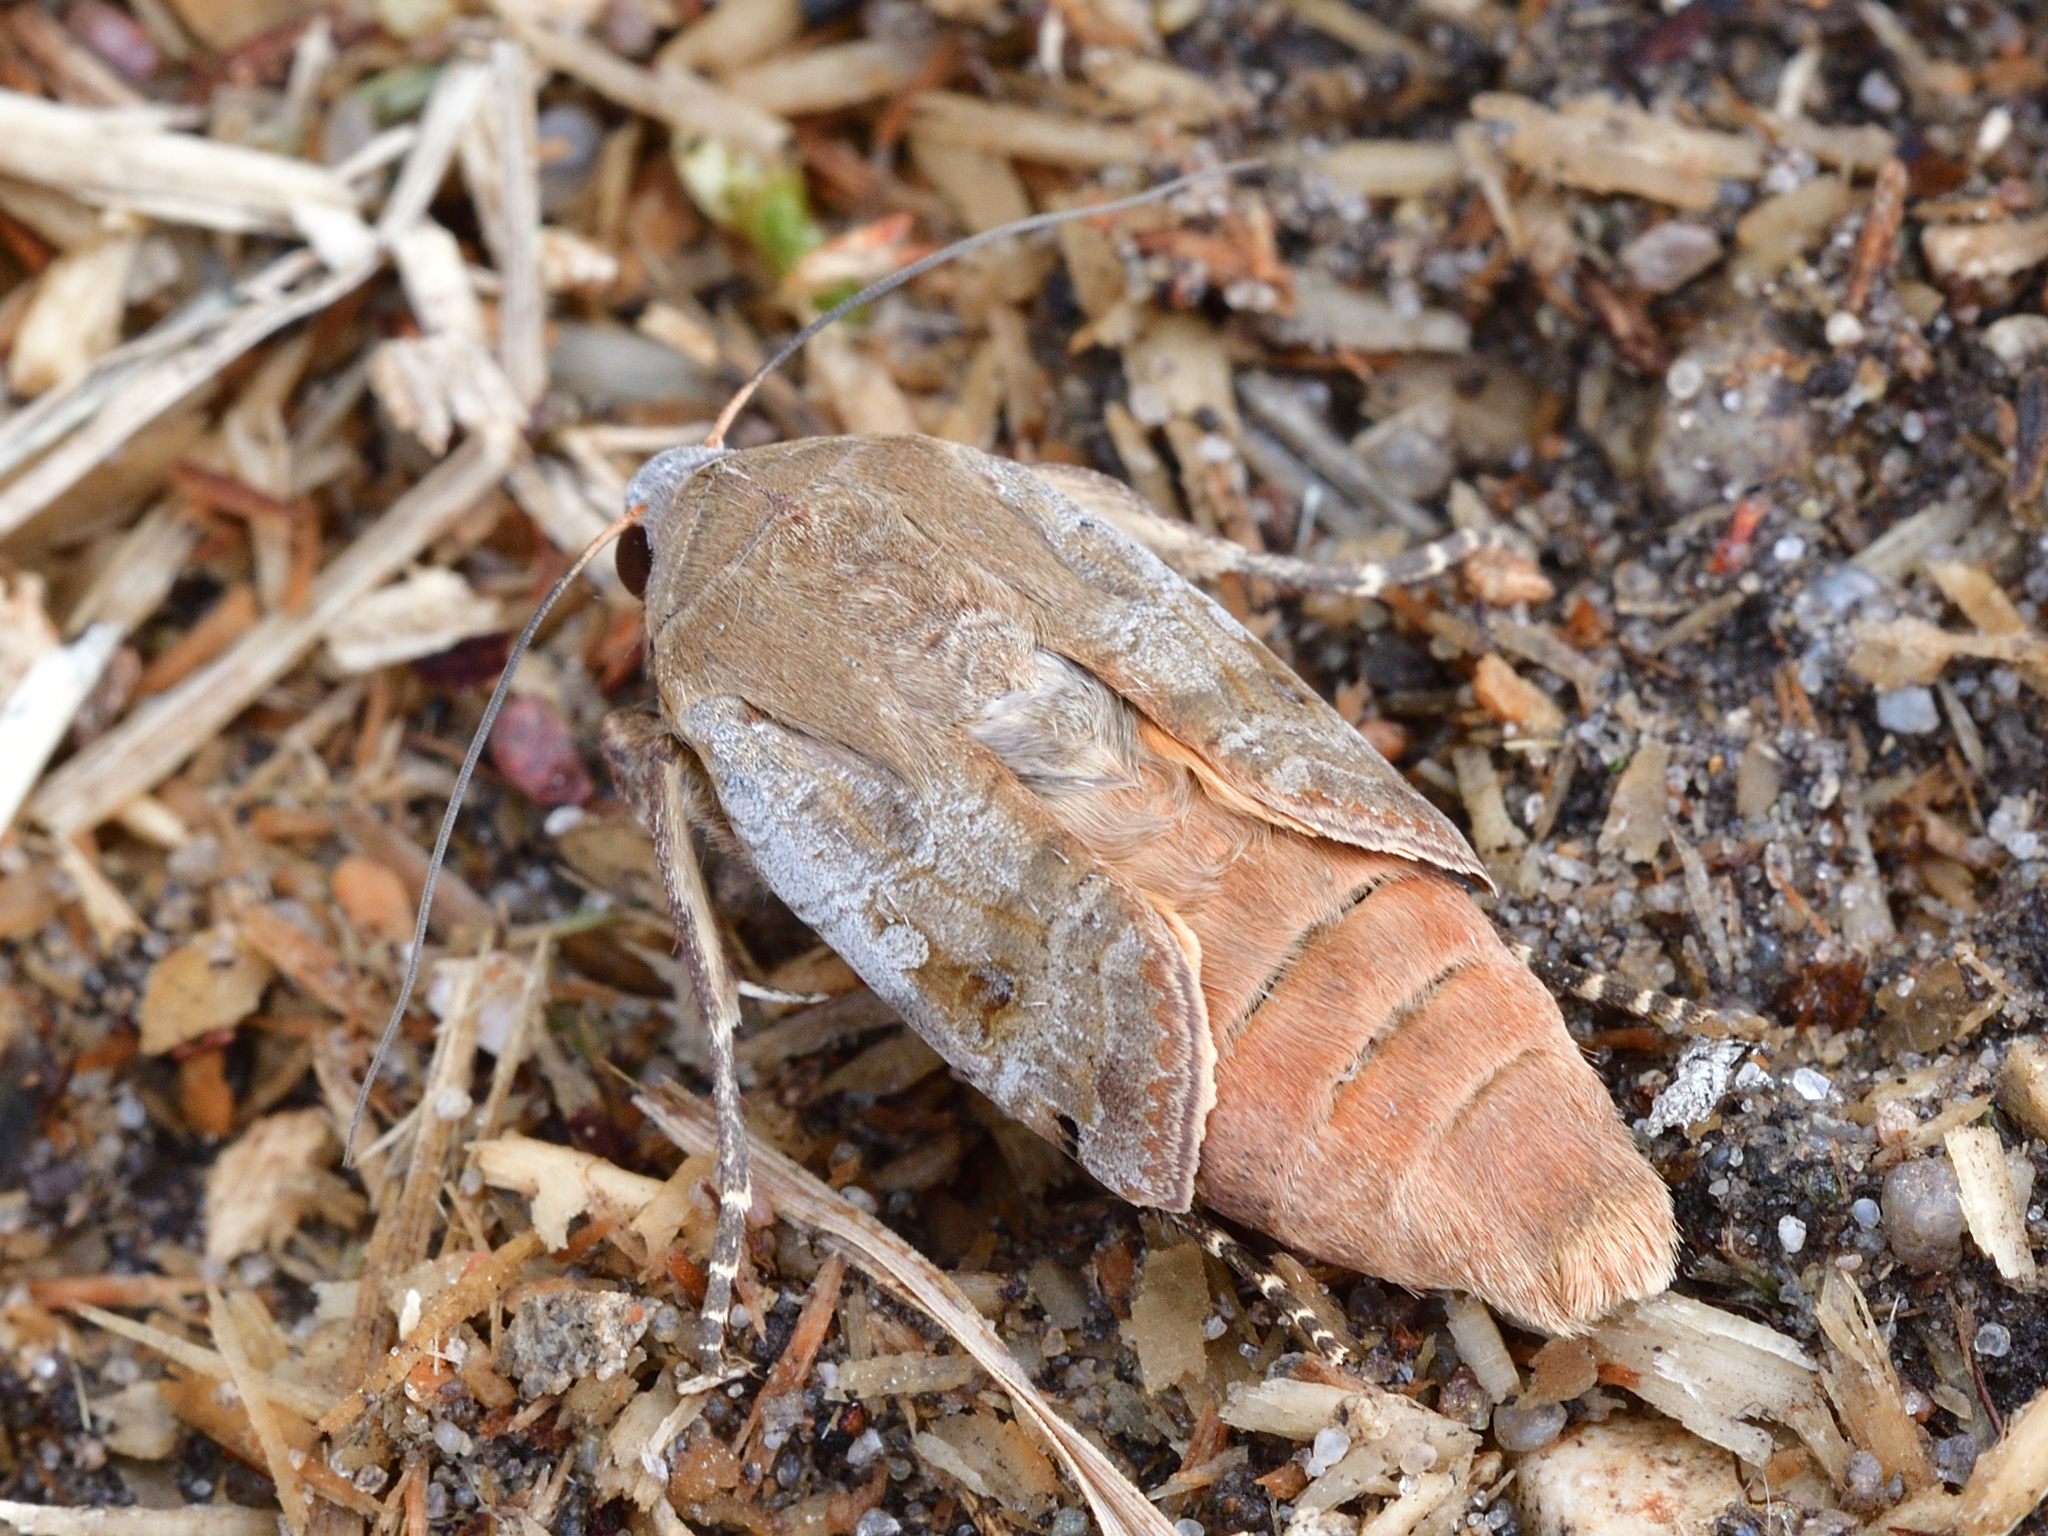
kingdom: Animalia
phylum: Arthropoda
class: Insecta
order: Lepidoptera
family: Noctuidae
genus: Noctua
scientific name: Noctua pronuba
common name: Large yellow underwing
